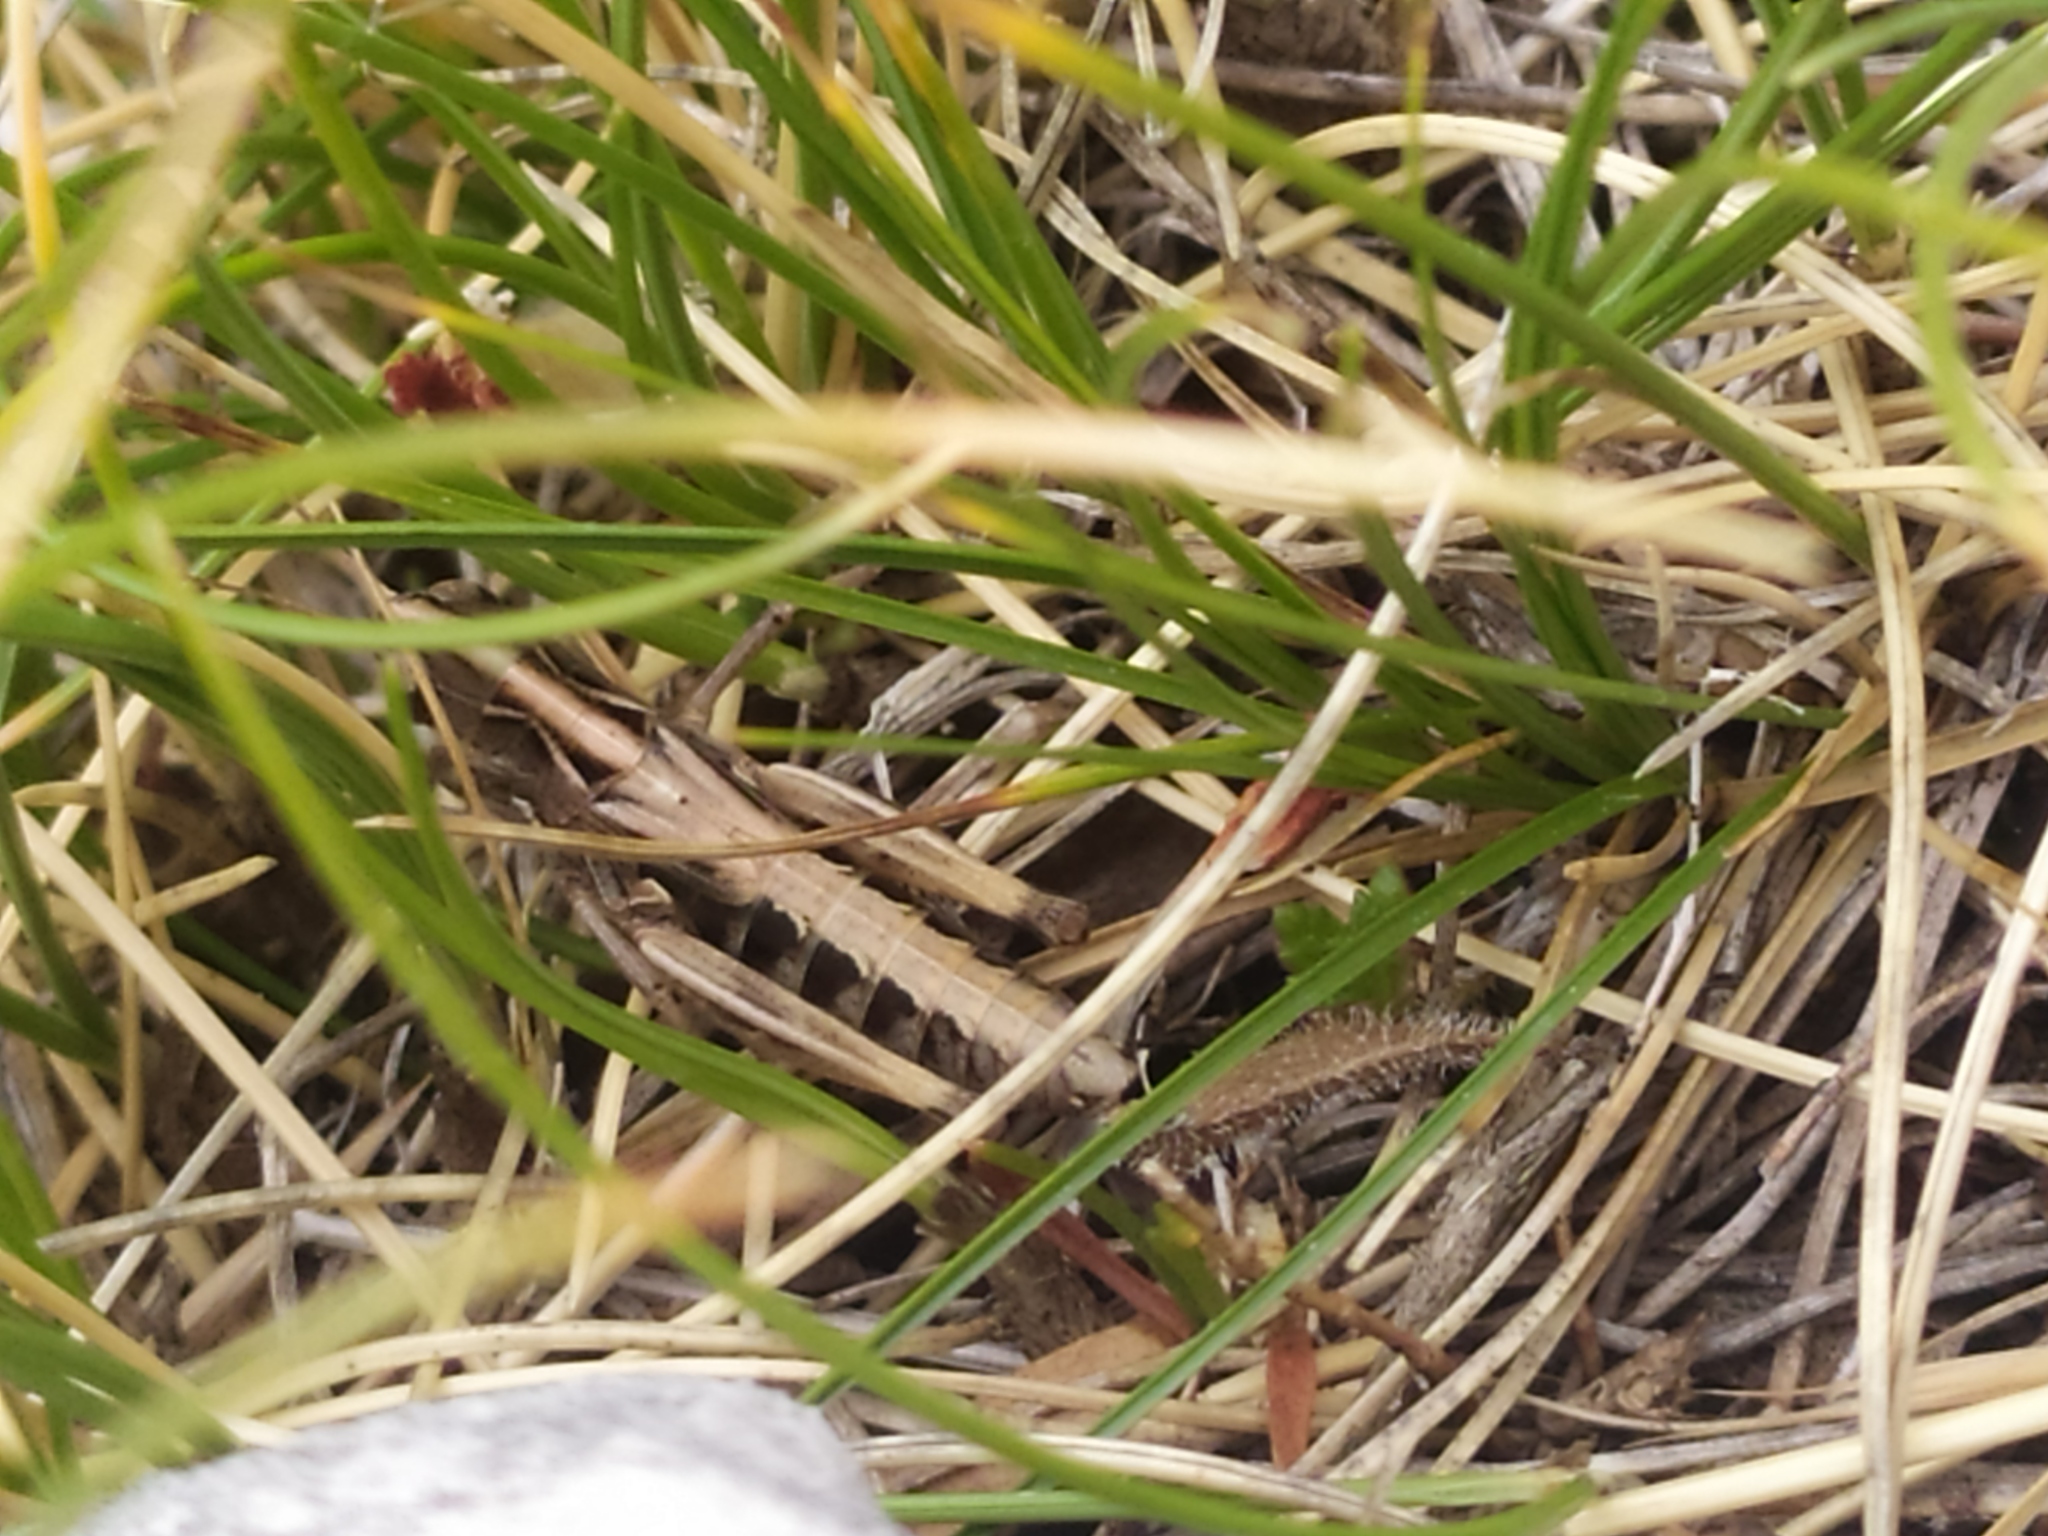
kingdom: Animalia
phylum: Arthropoda
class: Insecta
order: Orthoptera
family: Acrididae
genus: Rammeihippus
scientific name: Rammeihippus dinaricus
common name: Dinarian grasshopper
